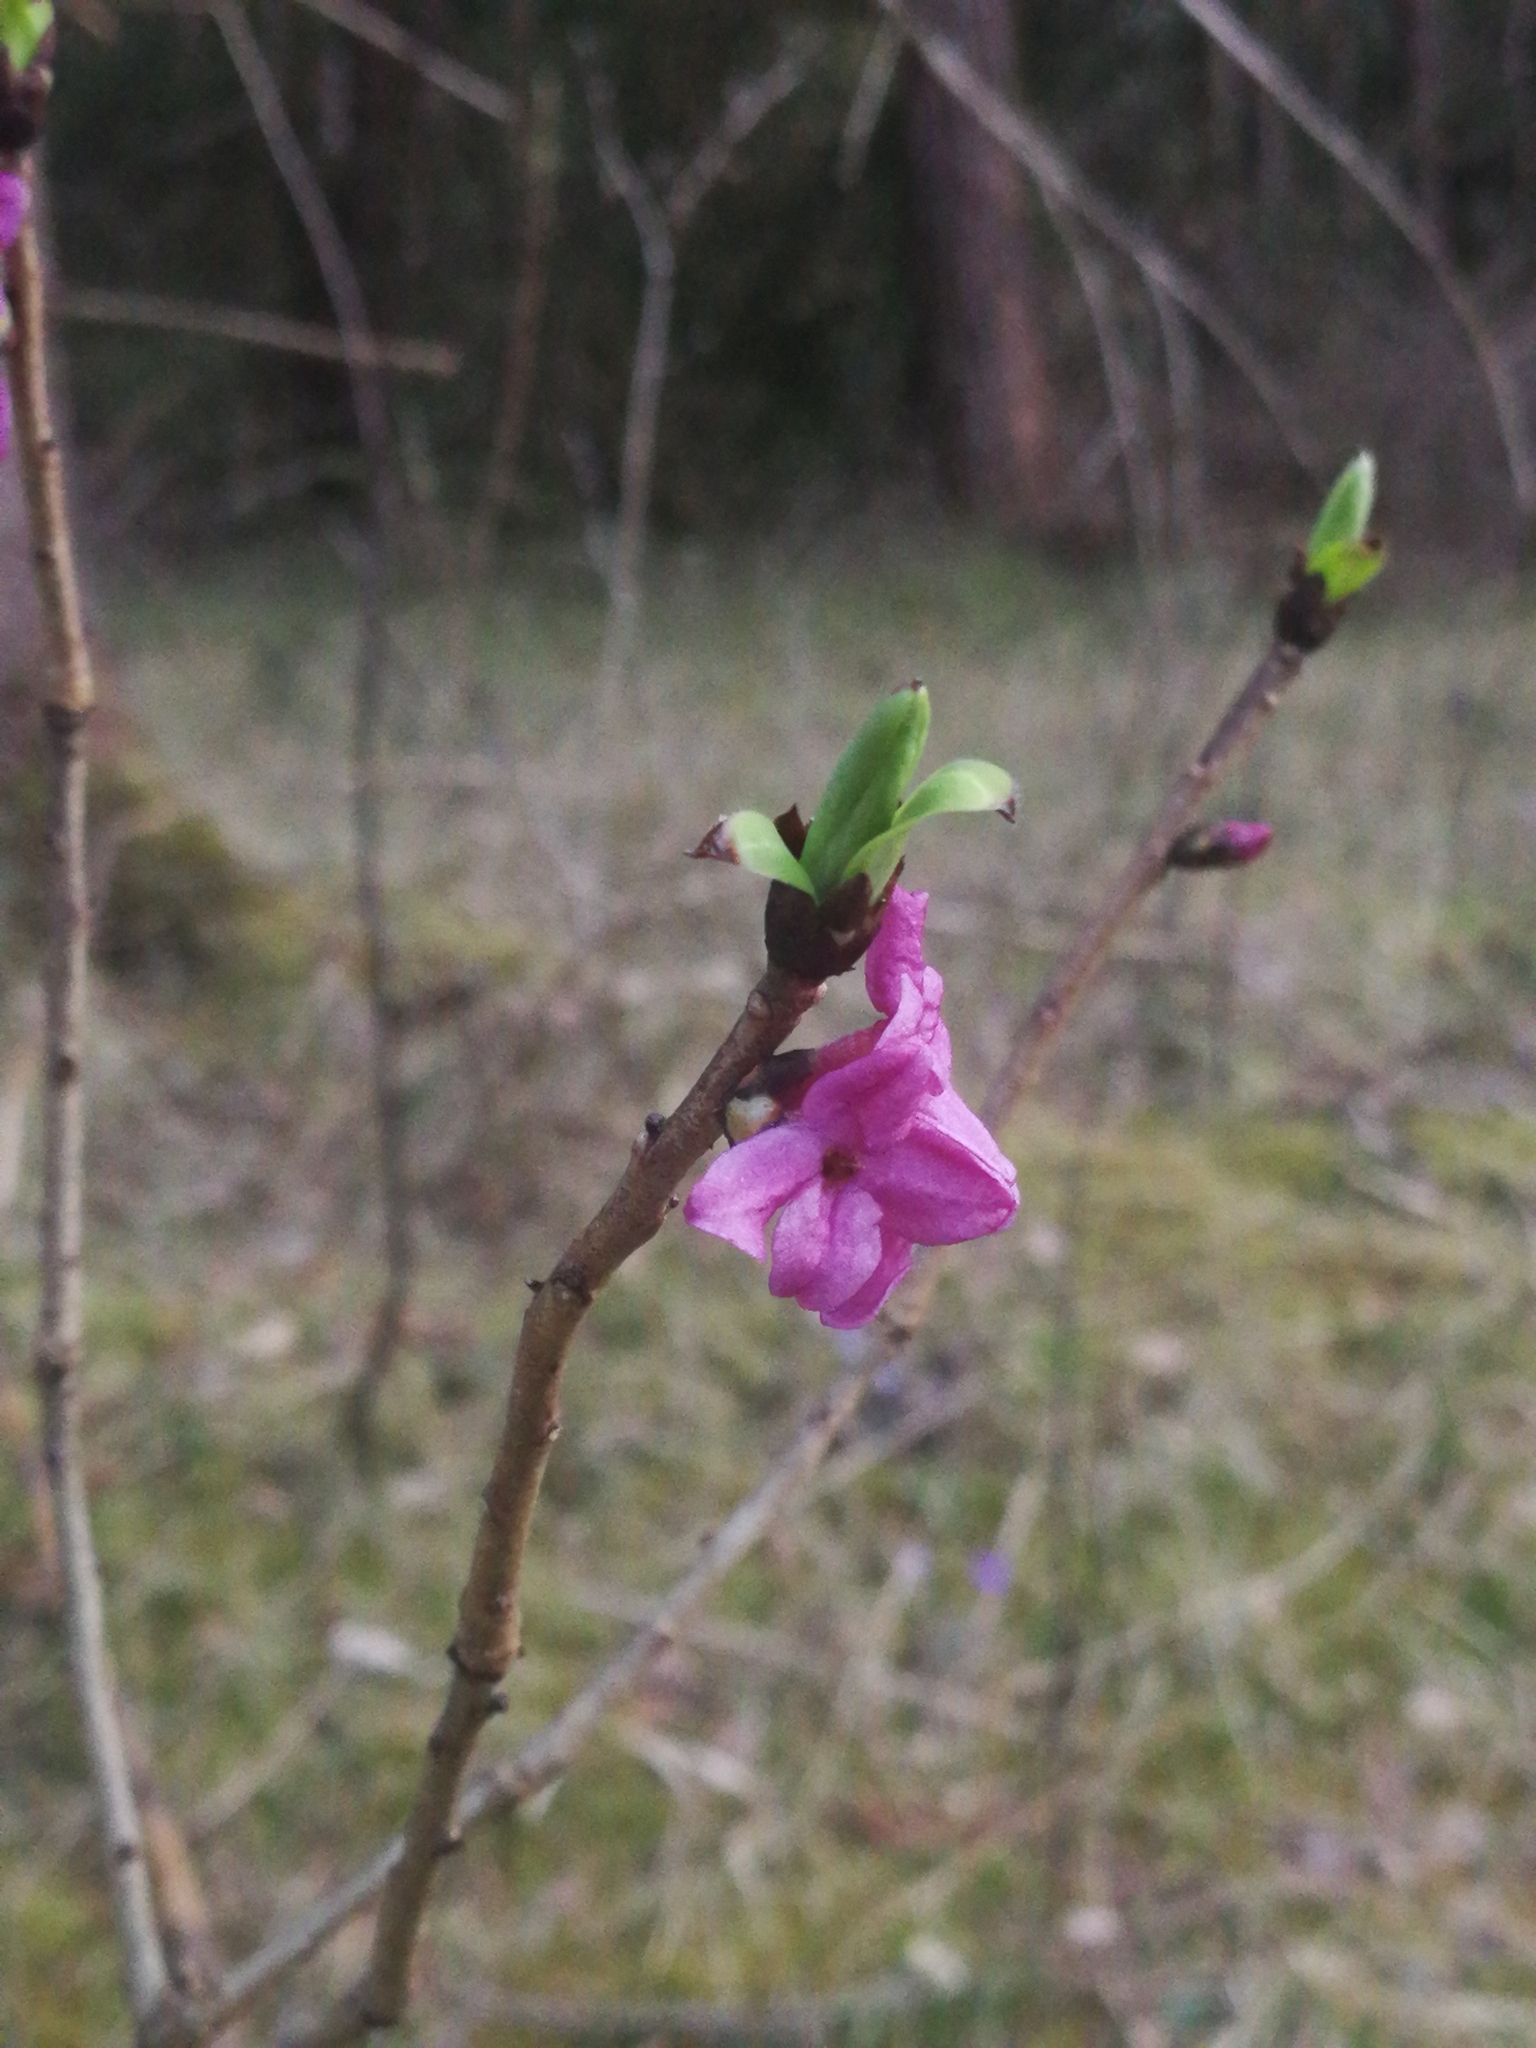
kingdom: Plantae
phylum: Tracheophyta
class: Magnoliopsida
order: Malvales
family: Thymelaeaceae
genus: Daphne
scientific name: Daphne mezereum
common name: Mezereon
